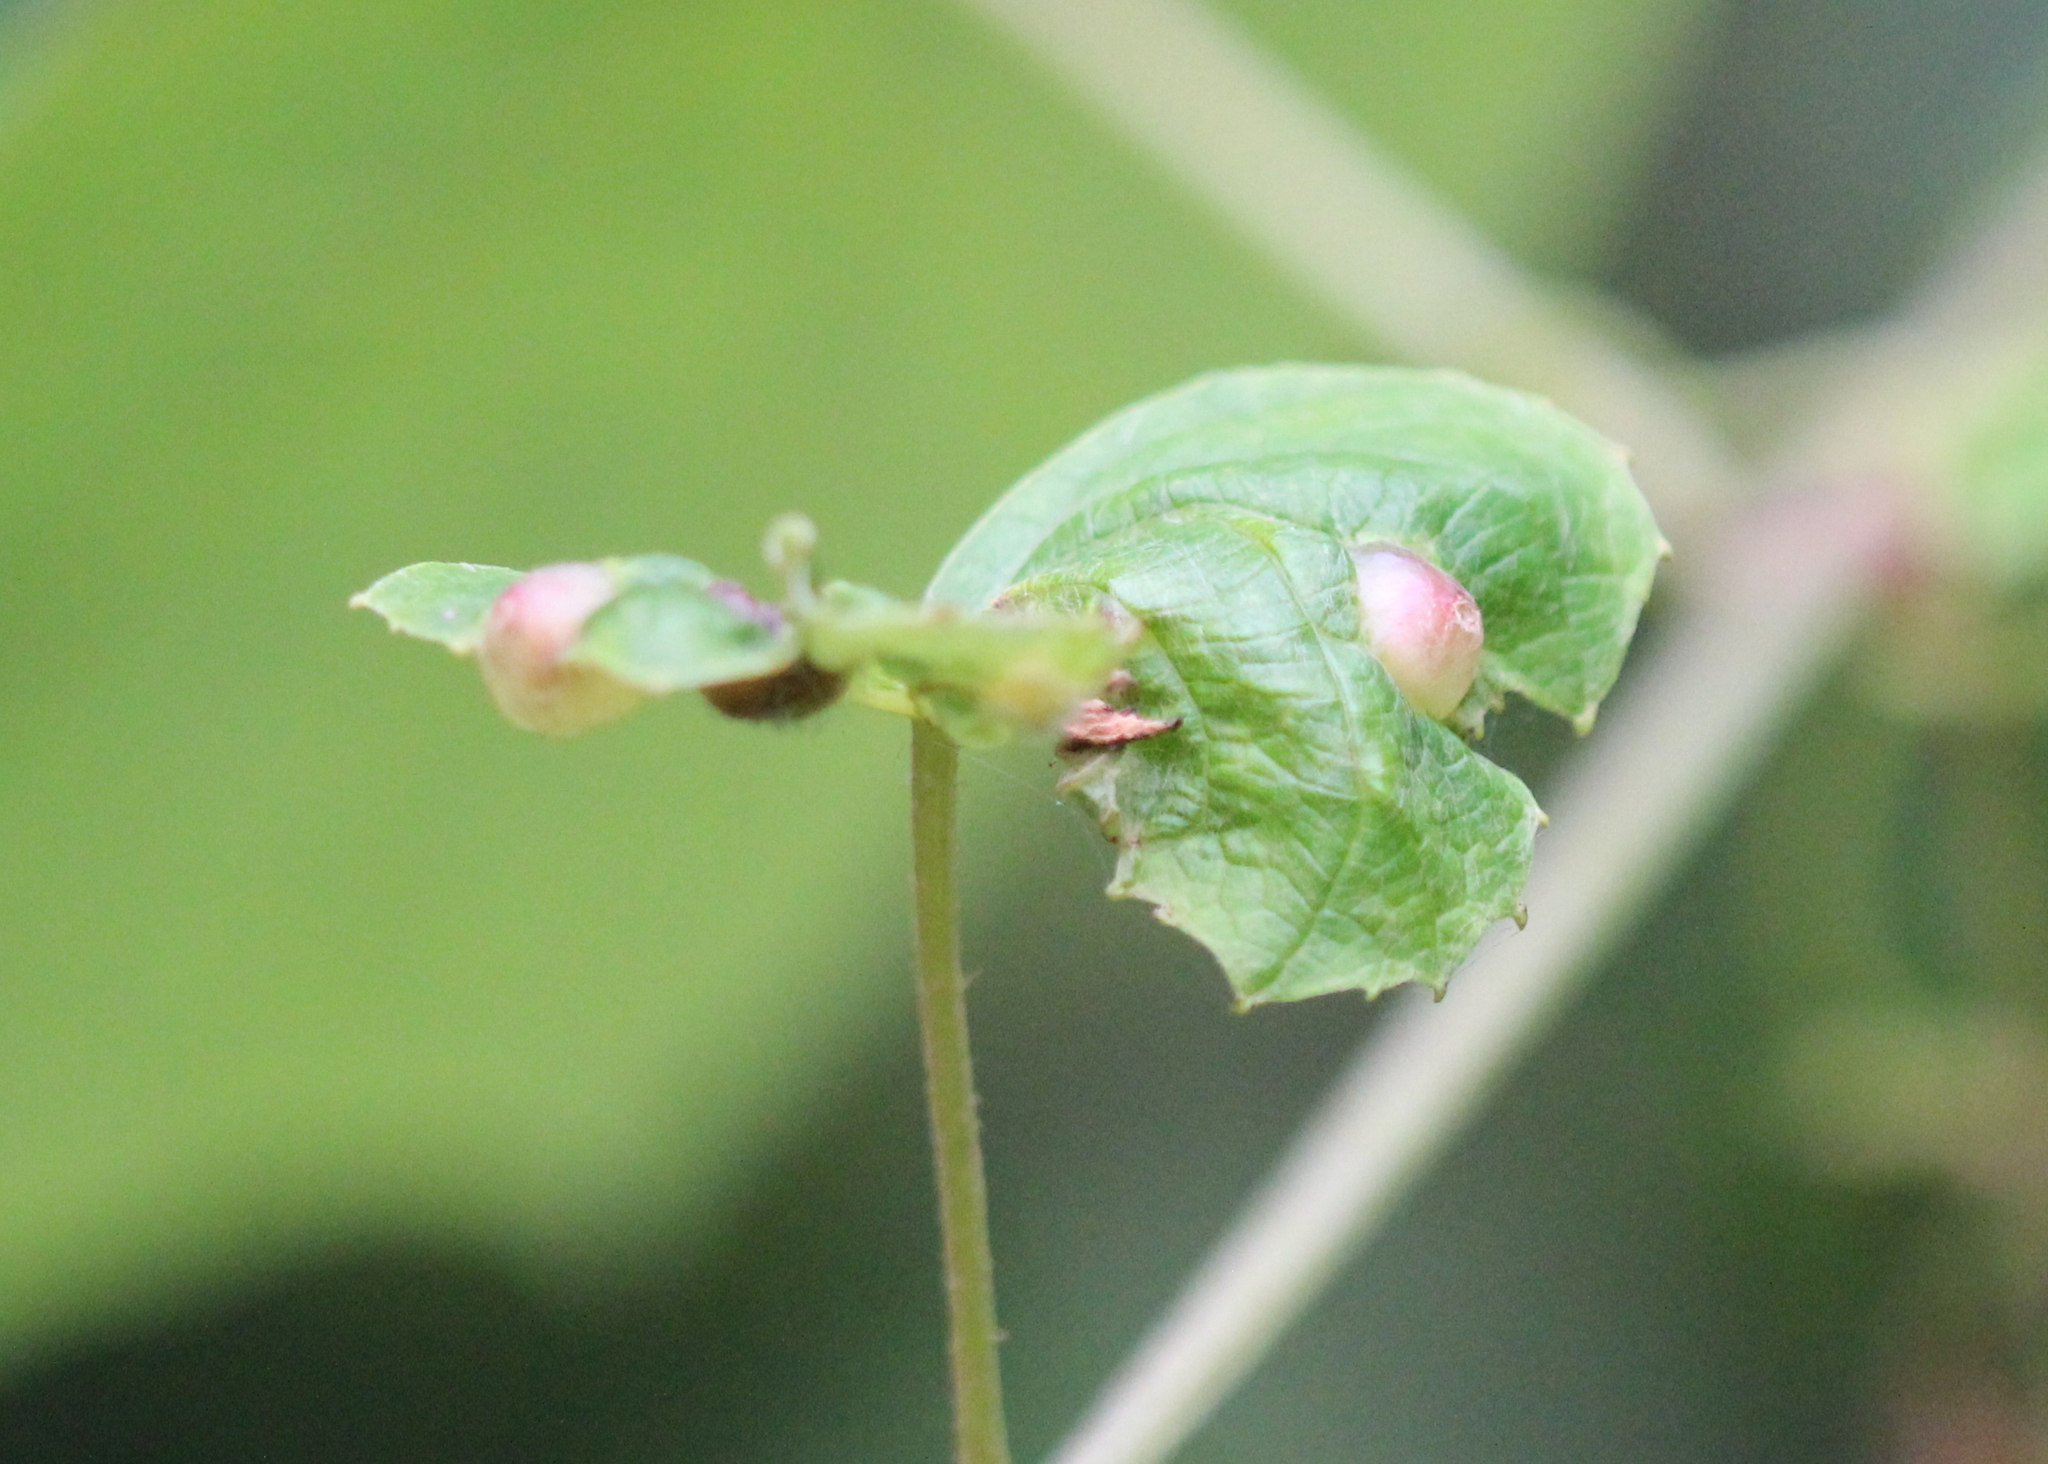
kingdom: Animalia
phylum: Arthropoda
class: Insecta
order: Diptera
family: Cecidomyiidae
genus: Vitisiella
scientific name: Vitisiella brevicauda
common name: Grape tumid gallmaker midge
